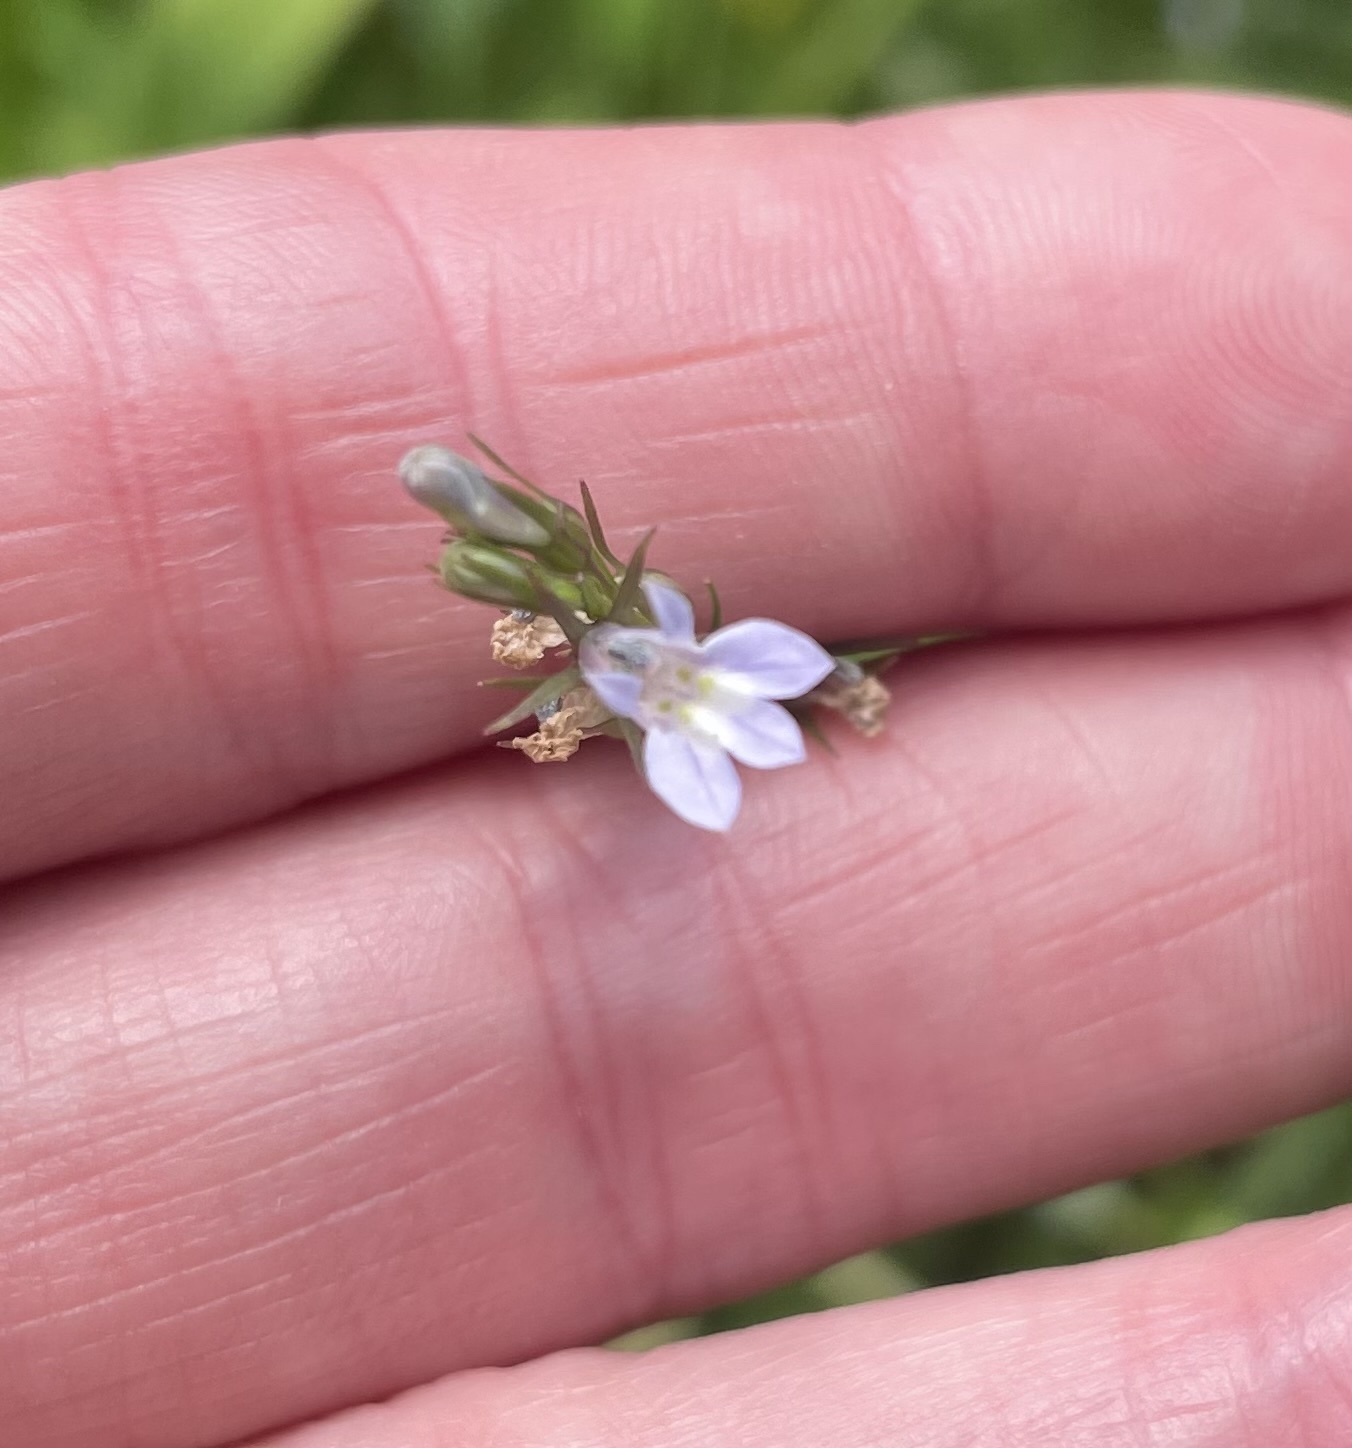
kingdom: Plantae
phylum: Tracheophyta
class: Magnoliopsida
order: Asterales
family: Campanulaceae
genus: Lobelia
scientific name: Lobelia inflata
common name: Indian tobacco
